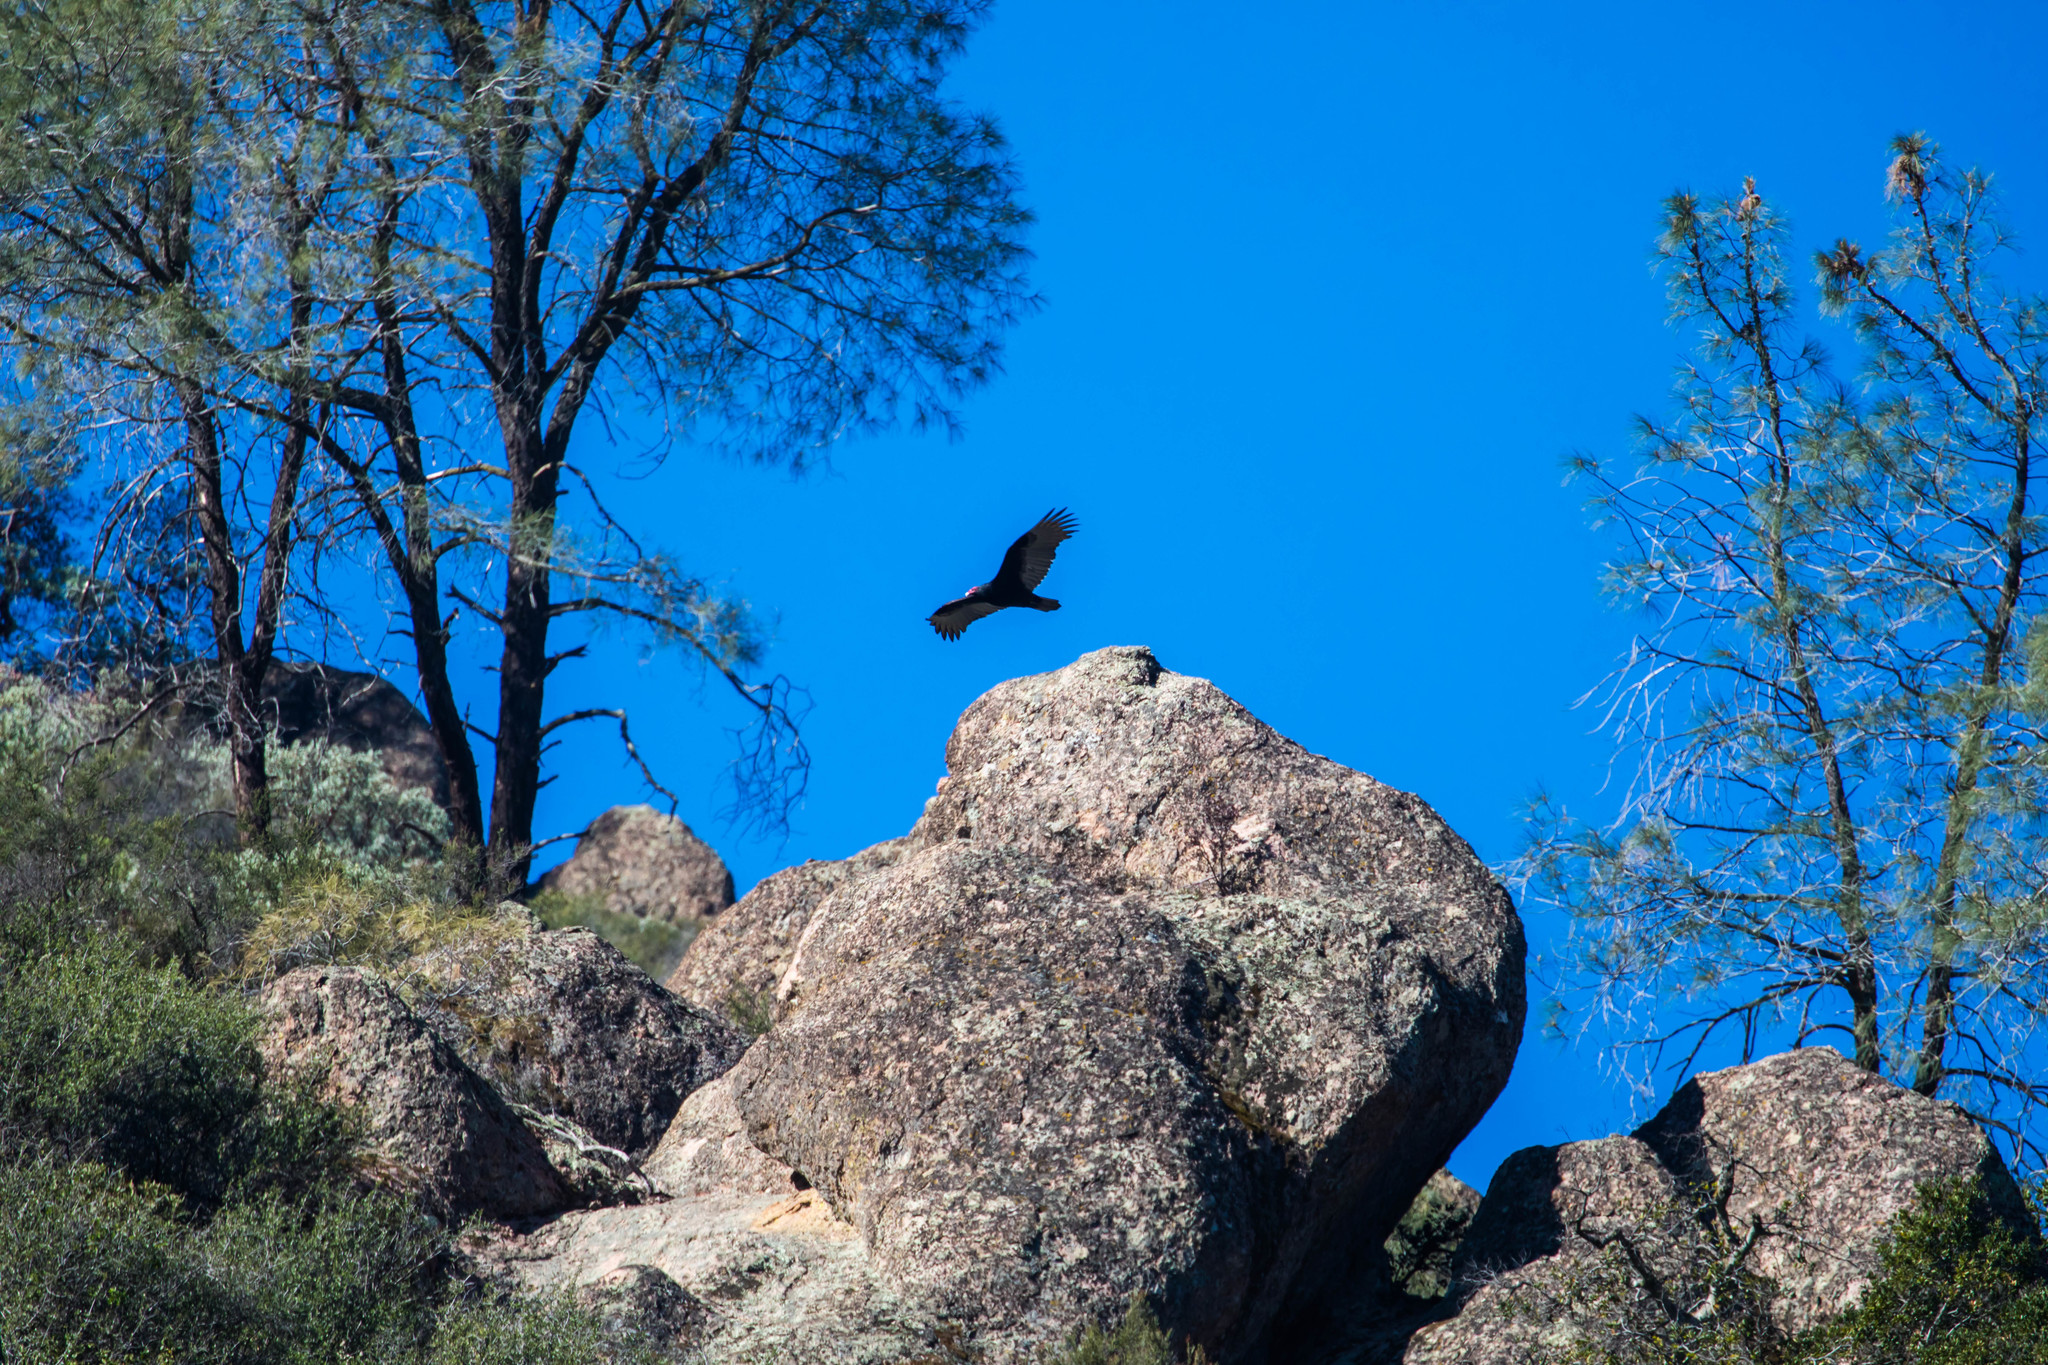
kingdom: Animalia
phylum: Chordata
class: Aves
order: Accipitriformes
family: Cathartidae
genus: Cathartes
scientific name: Cathartes aura
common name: Turkey vulture
